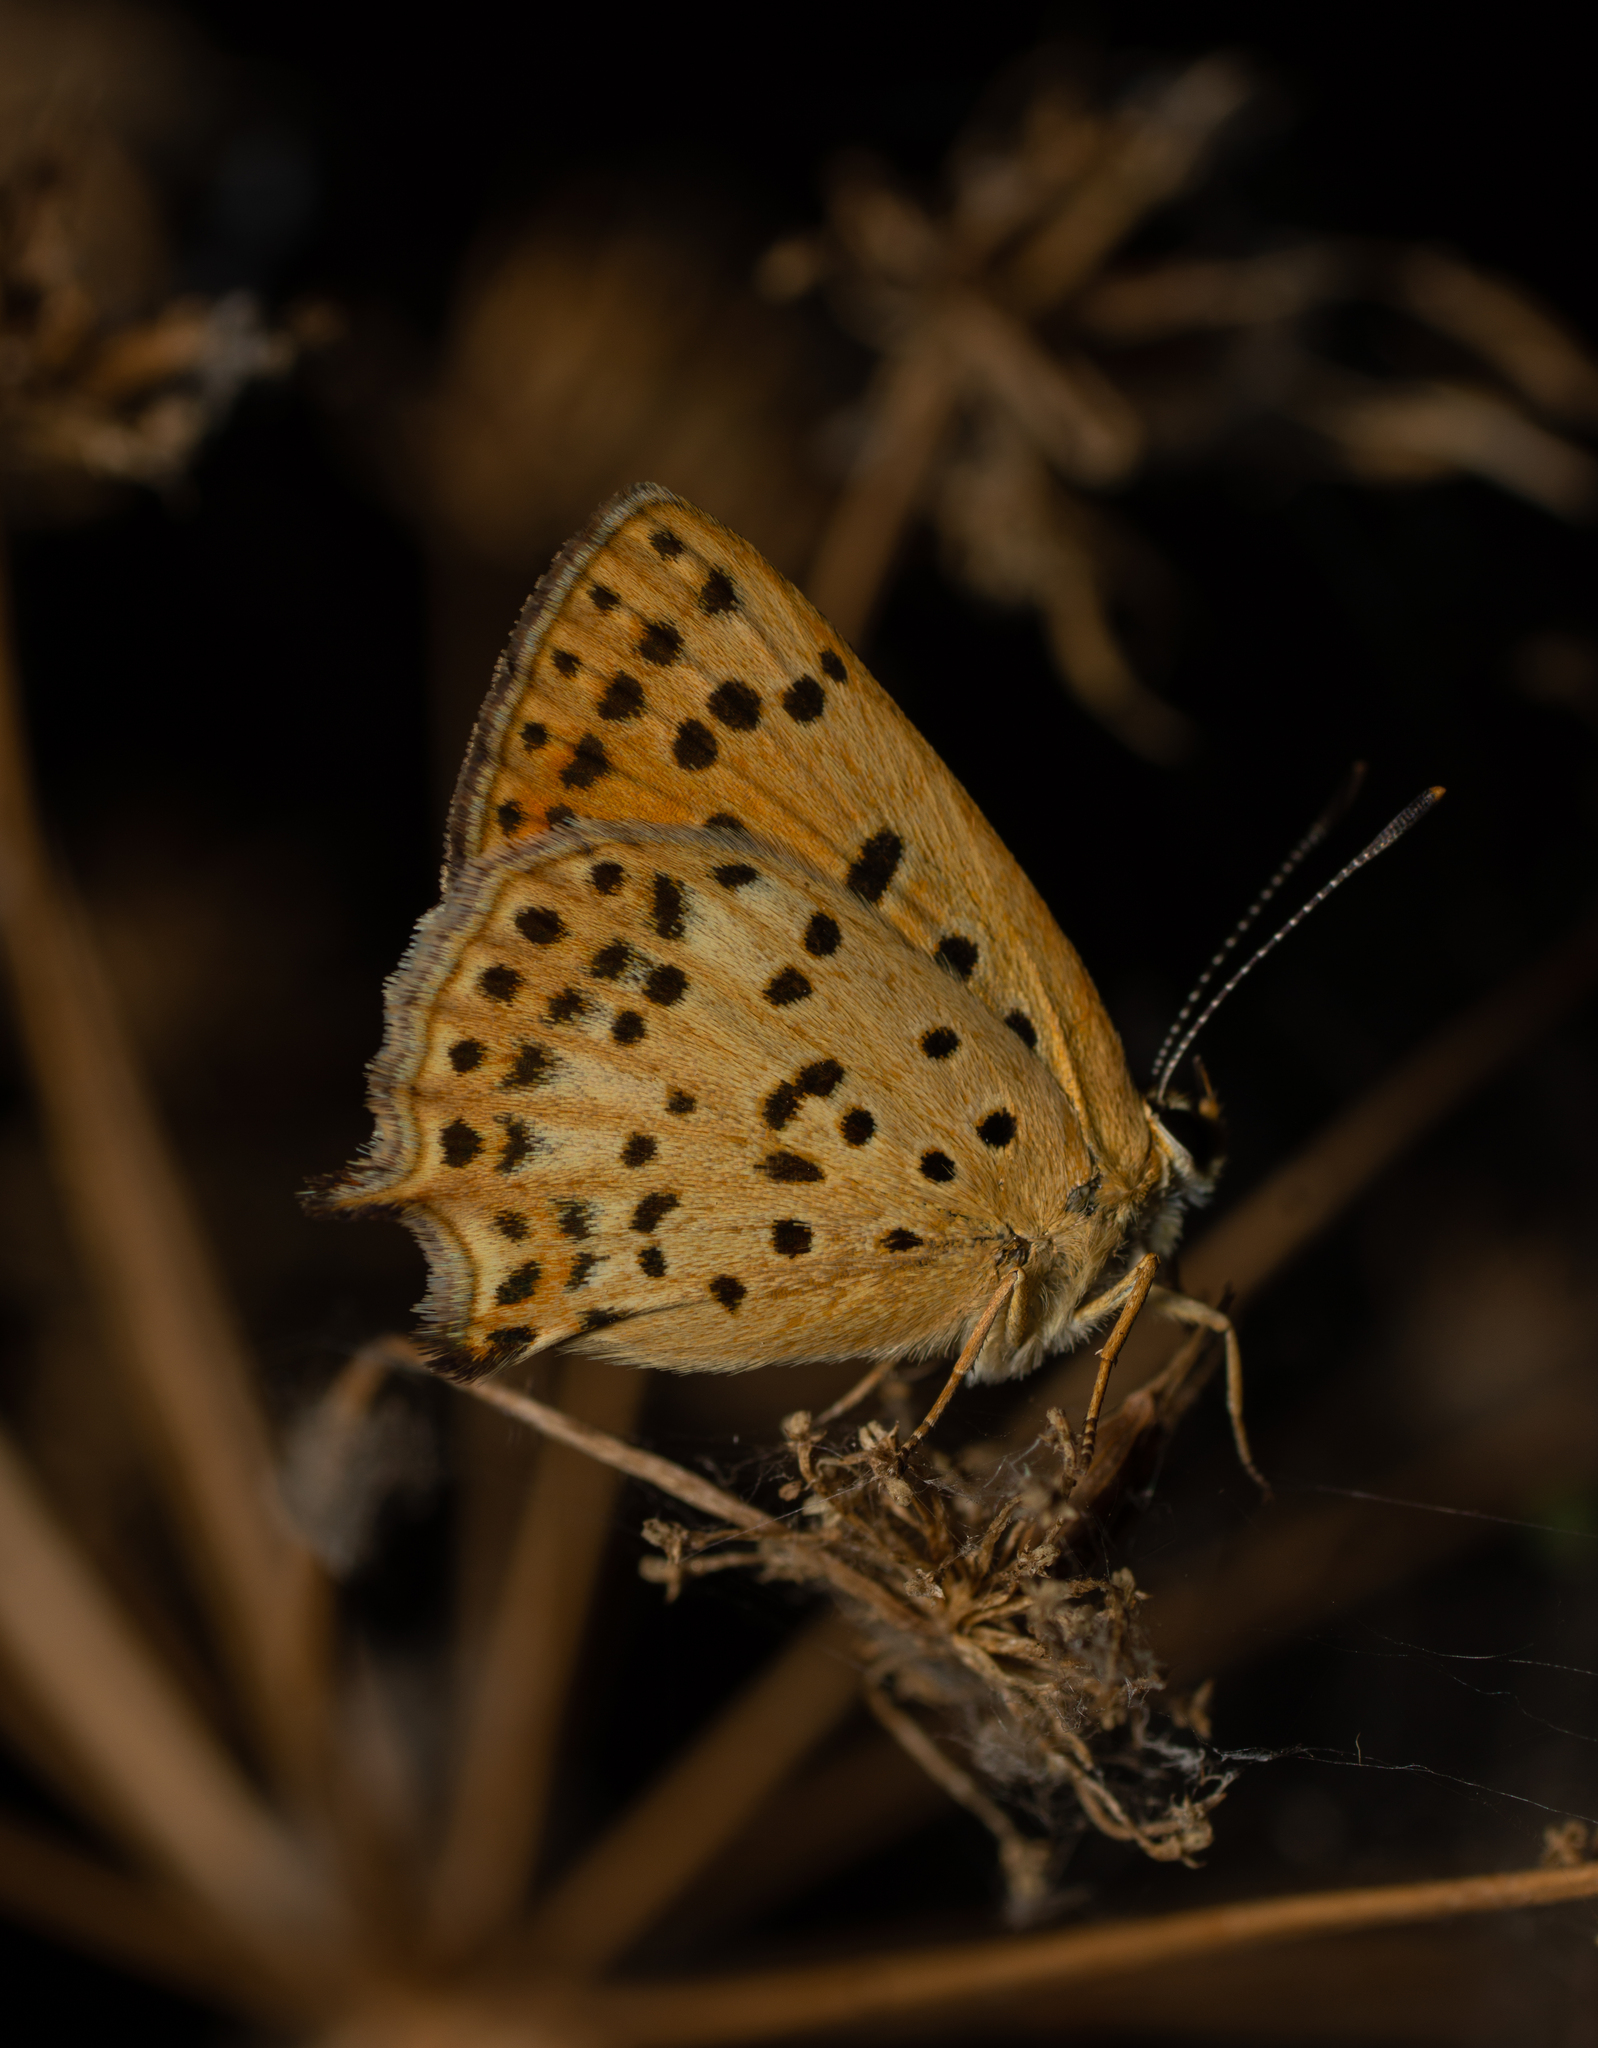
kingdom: Animalia
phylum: Arthropoda
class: Insecta
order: Lepidoptera
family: Lycaenidae
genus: Lycaena
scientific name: Lycaena bleusei
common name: Iberian sooty copper
